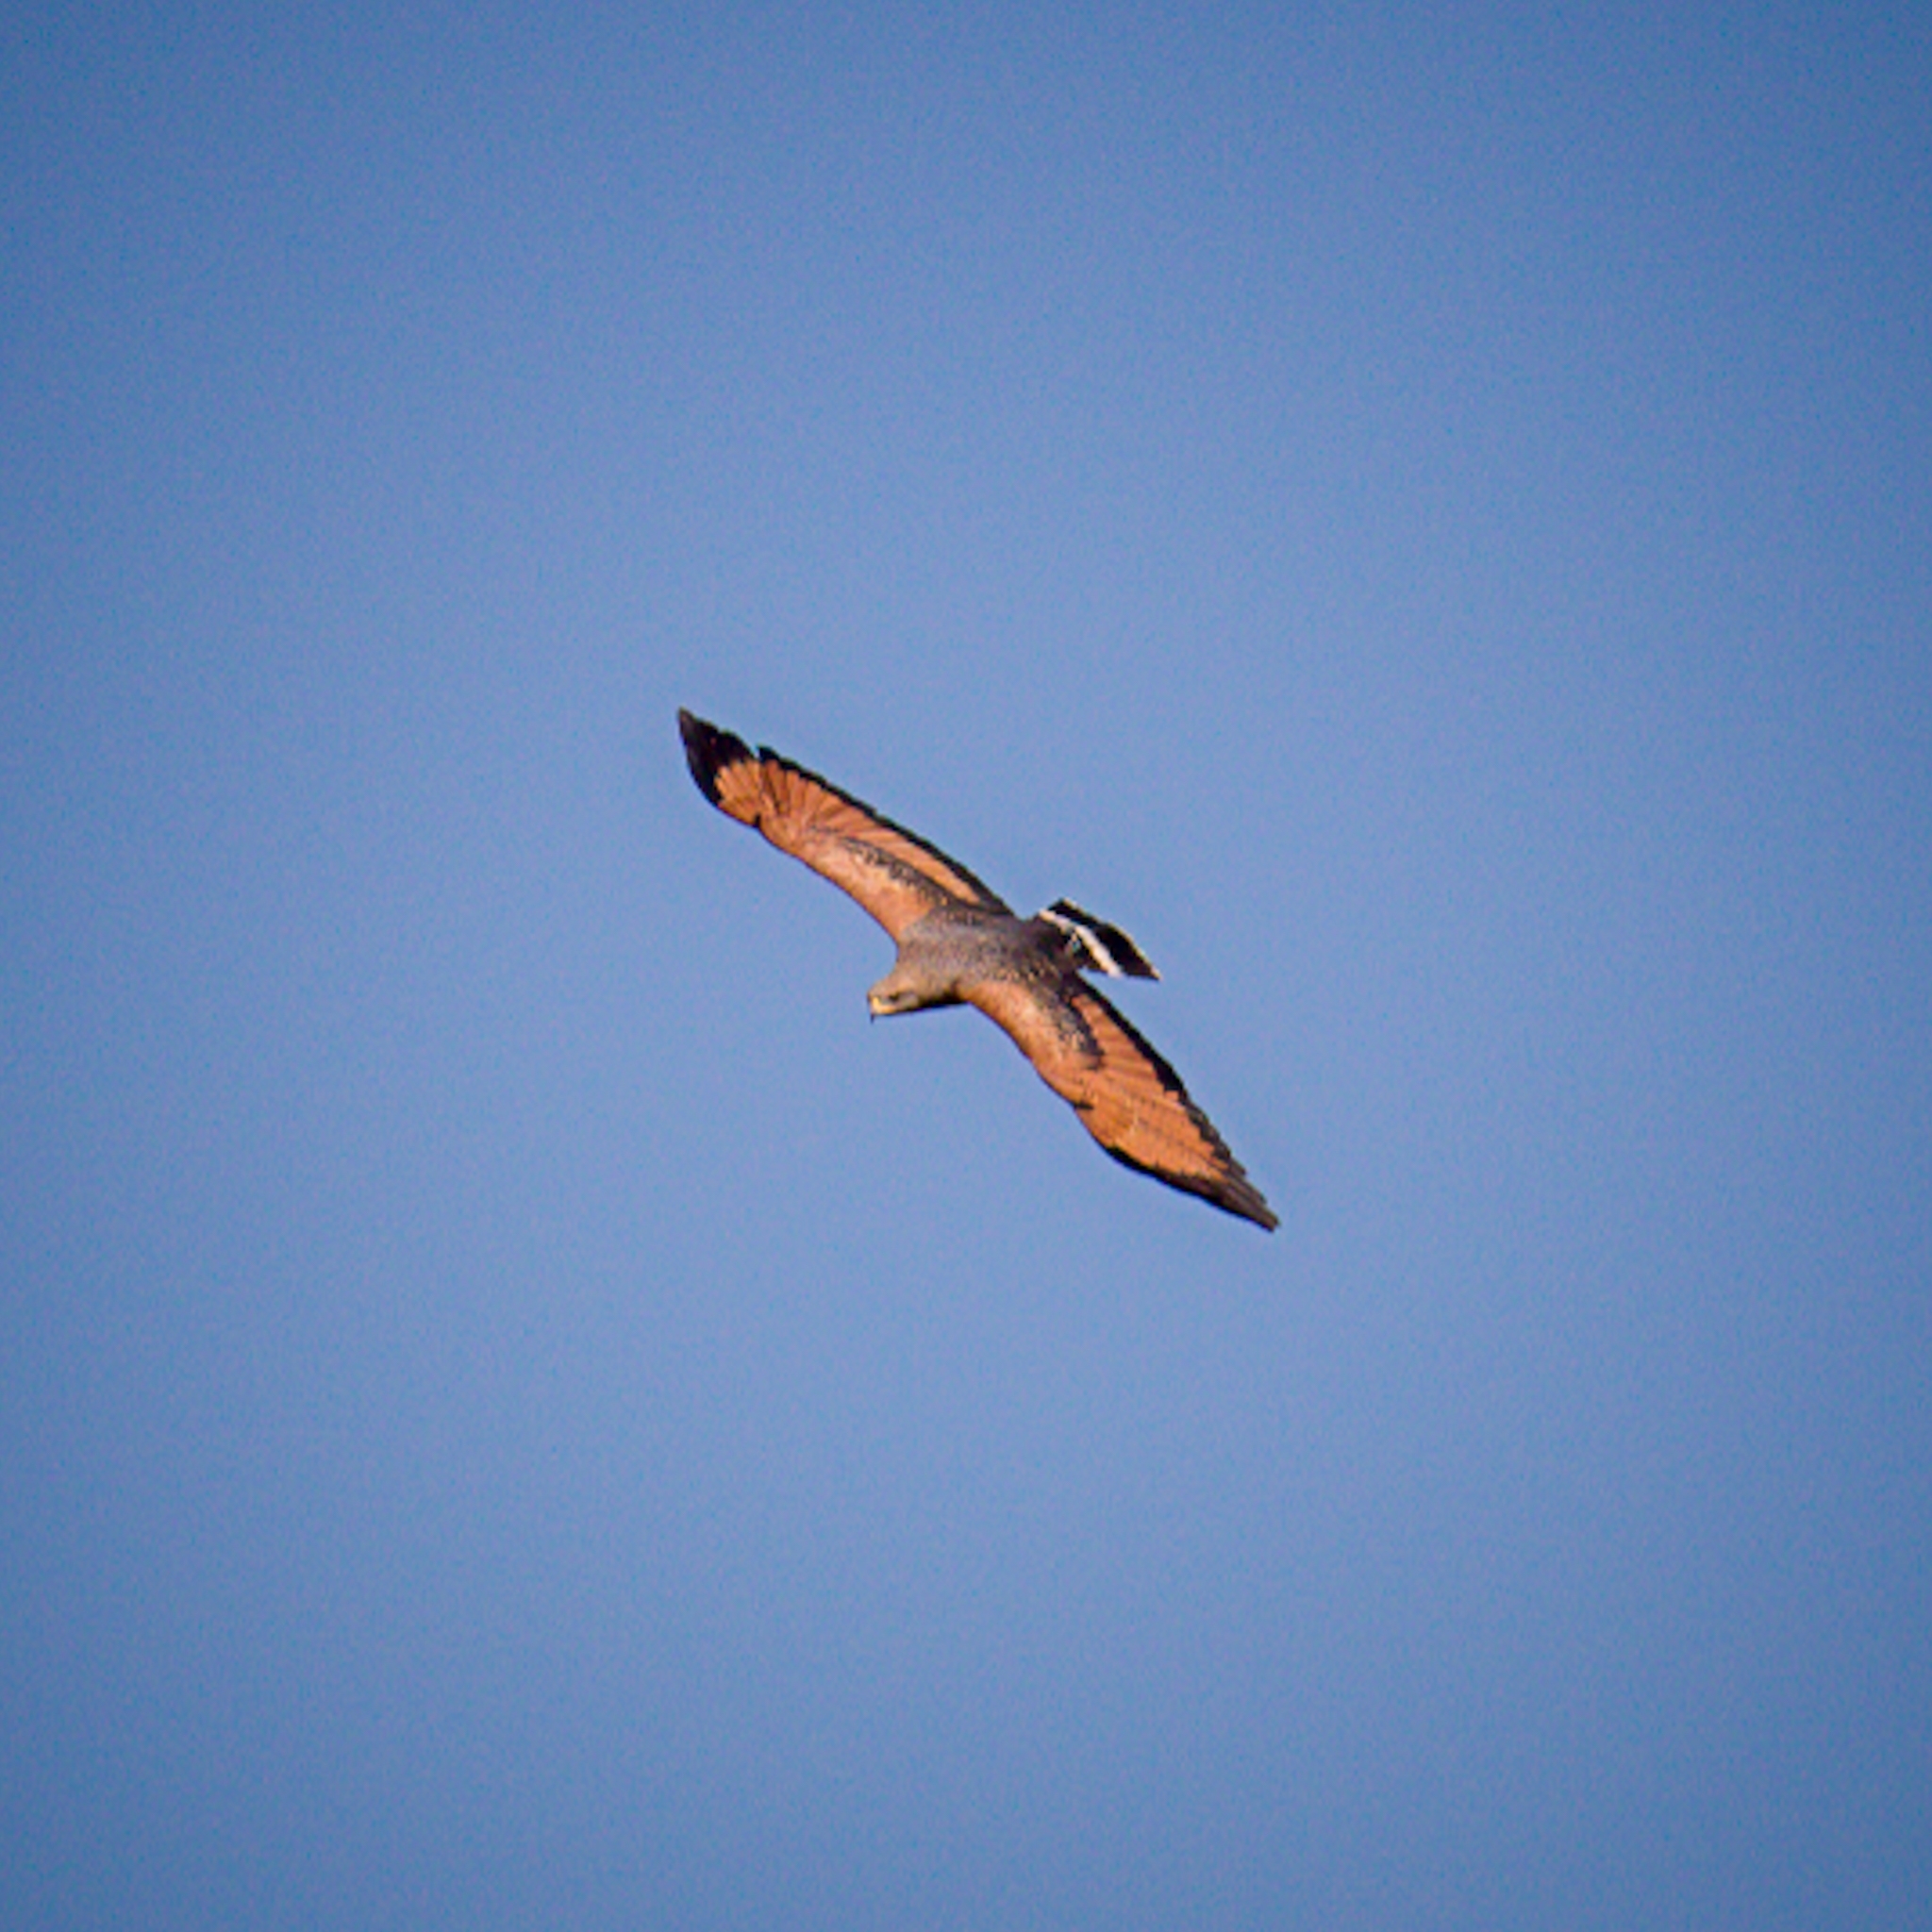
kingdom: Animalia
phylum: Chordata
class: Aves
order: Accipitriformes
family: Accipitridae
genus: Buteogallus
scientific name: Buteogallus meridionalis
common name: Savanna hawk
